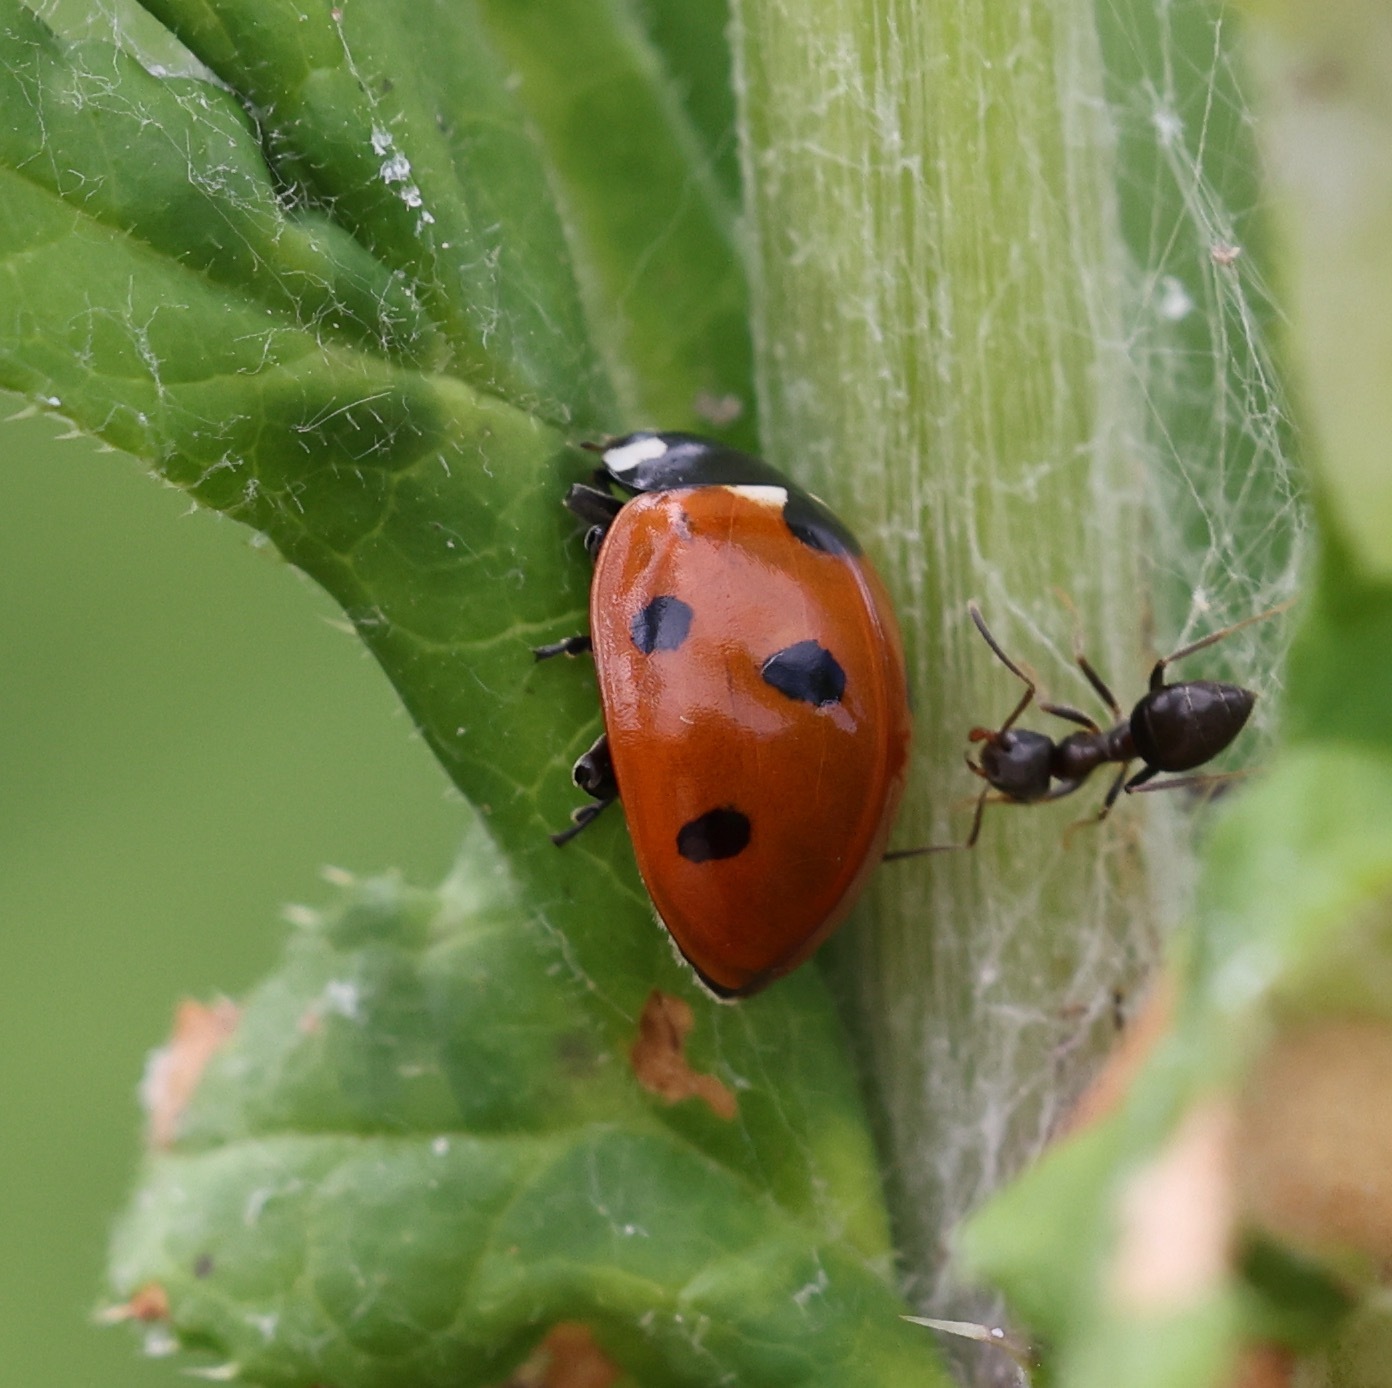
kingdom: Animalia
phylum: Arthropoda
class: Insecta
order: Coleoptera
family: Coccinellidae
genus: Coccinella
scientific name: Coccinella septempunctata
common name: Sevenspotted lady beetle
